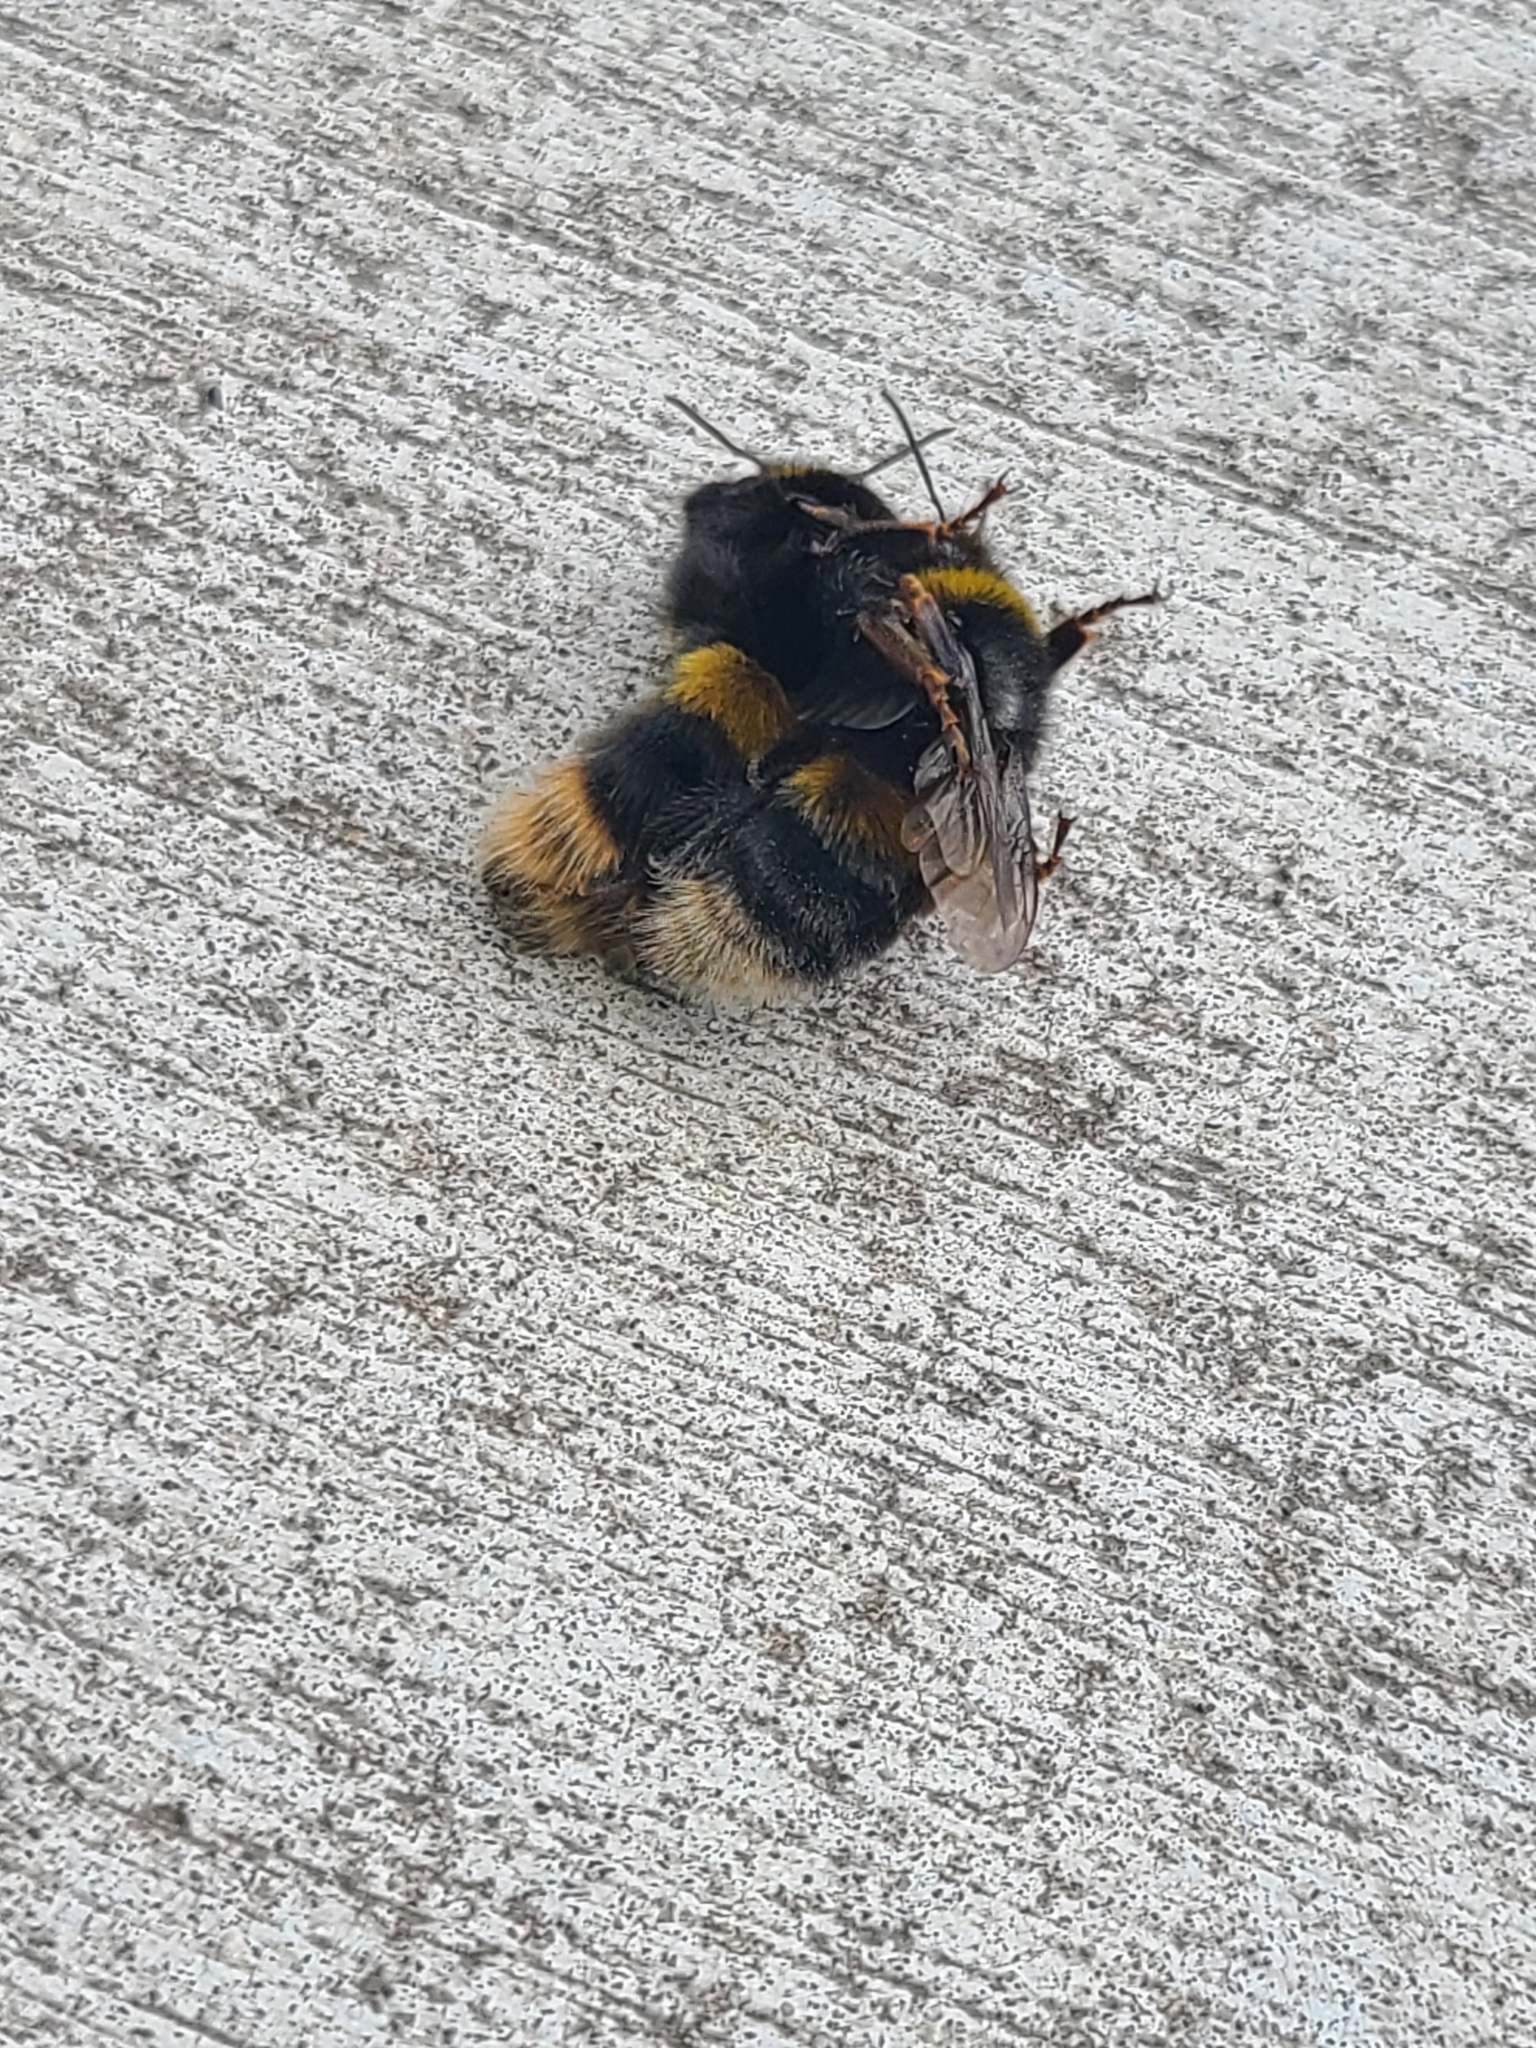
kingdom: Animalia
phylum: Arthropoda
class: Insecta
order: Hymenoptera
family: Apidae
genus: Bombus
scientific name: Bombus terrestris
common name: Buff-tailed bumblebee
